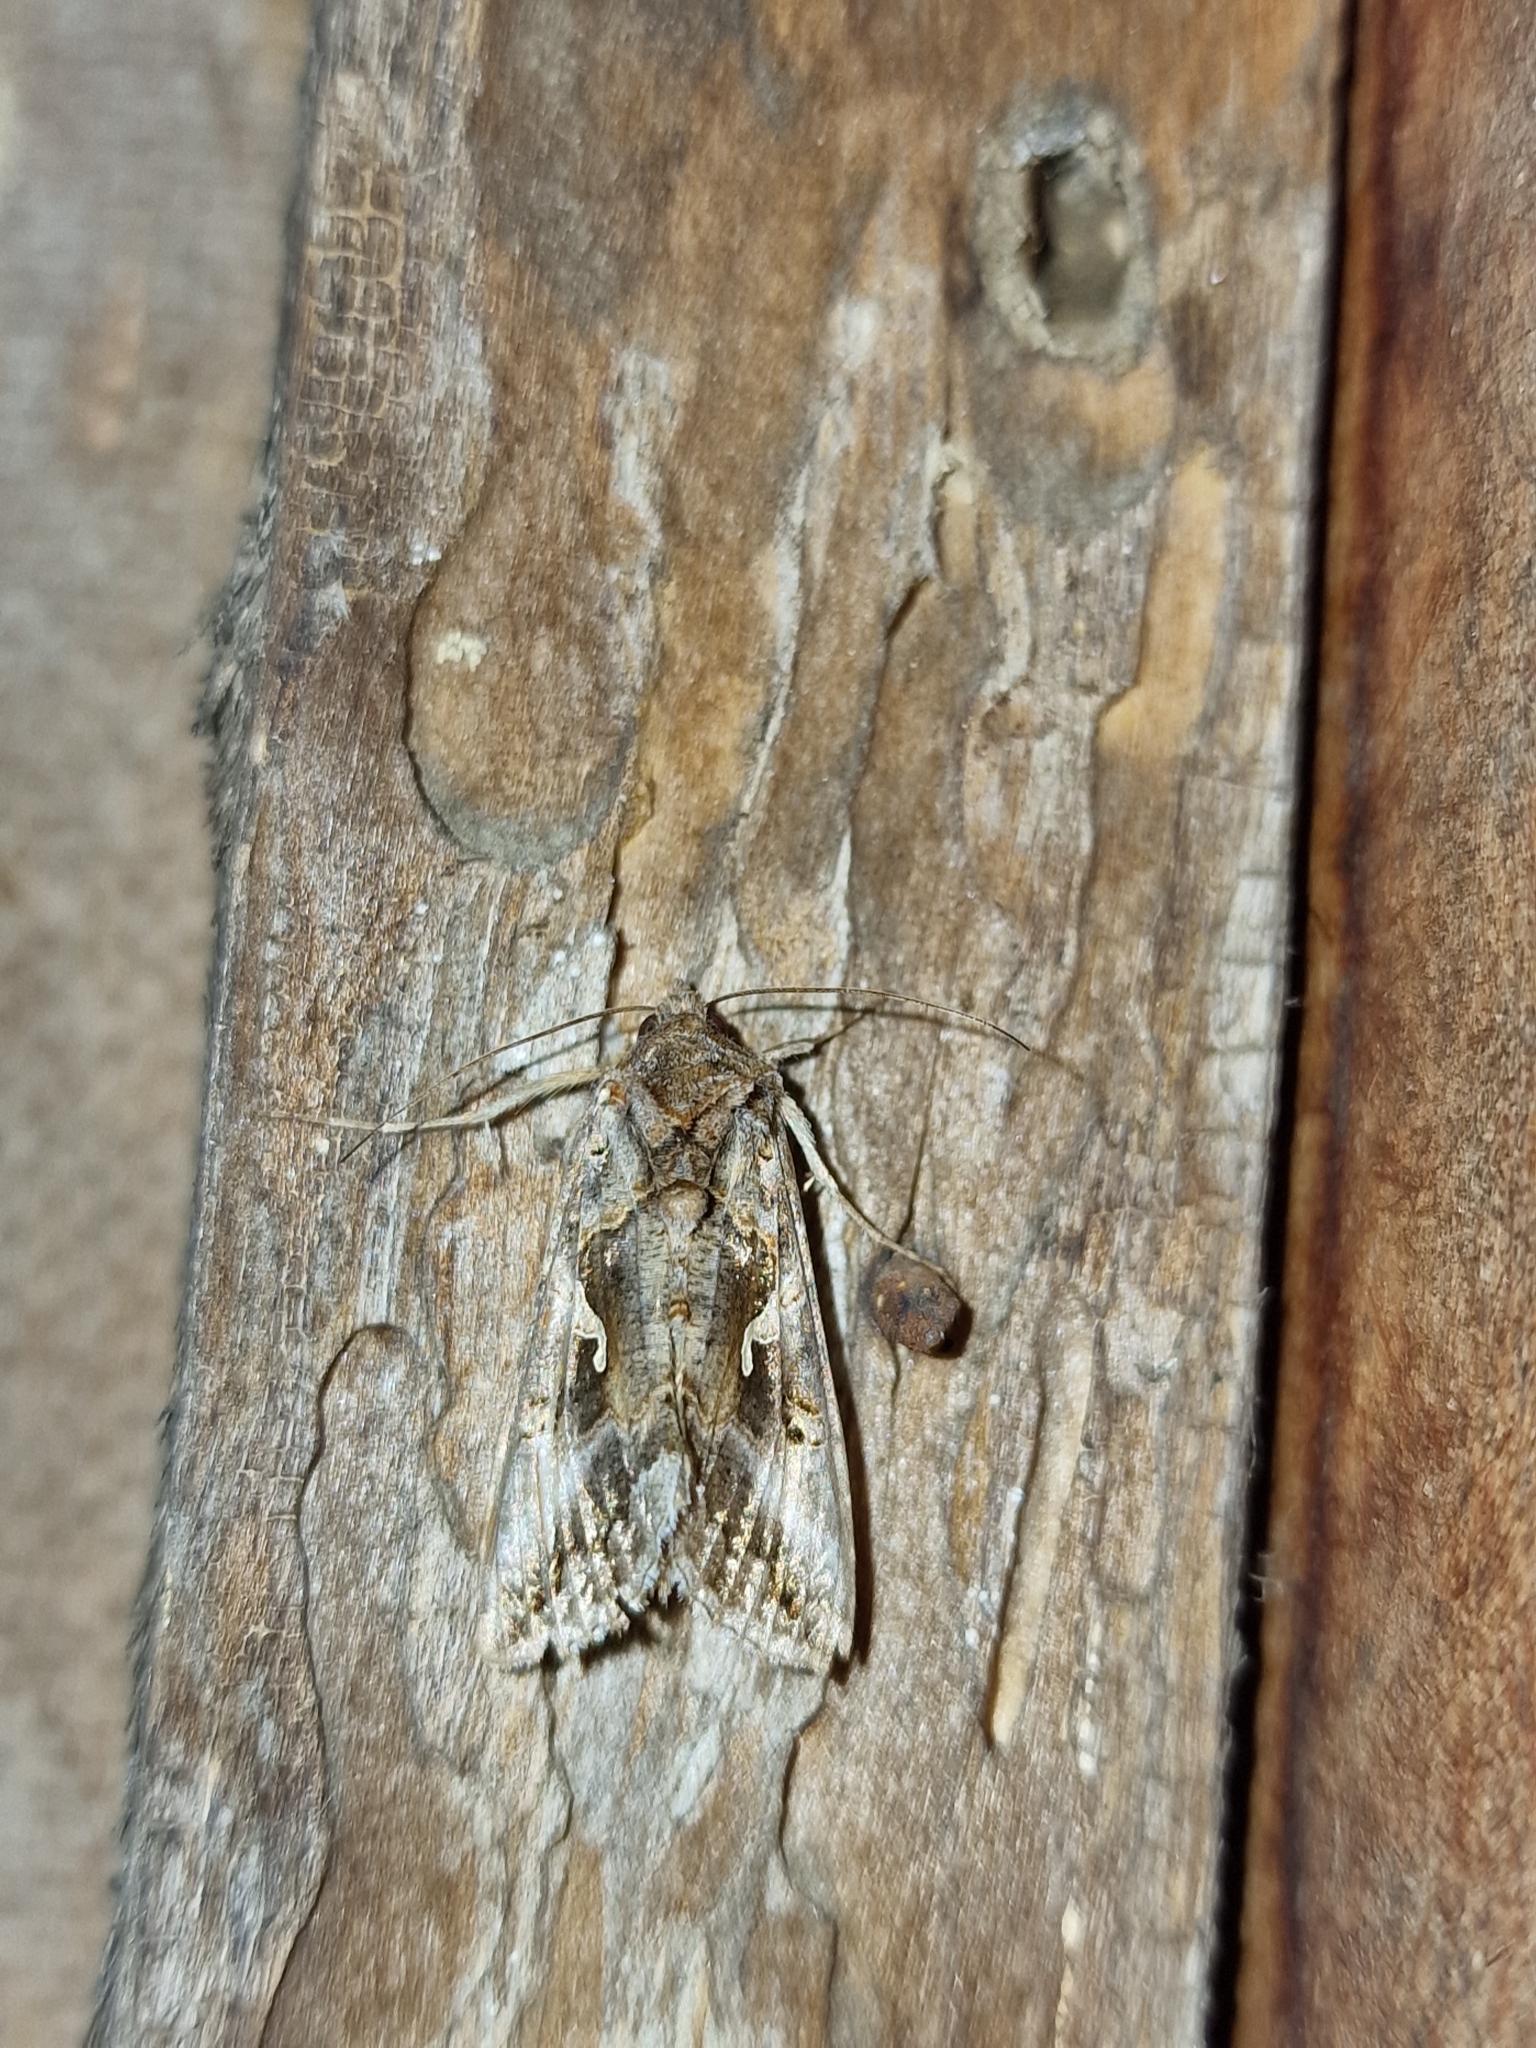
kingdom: Animalia
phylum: Arthropoda
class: Insecta
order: Lepidoptera
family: Noctuidae
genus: Autographa
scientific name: Autographa gamma
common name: Silver y
